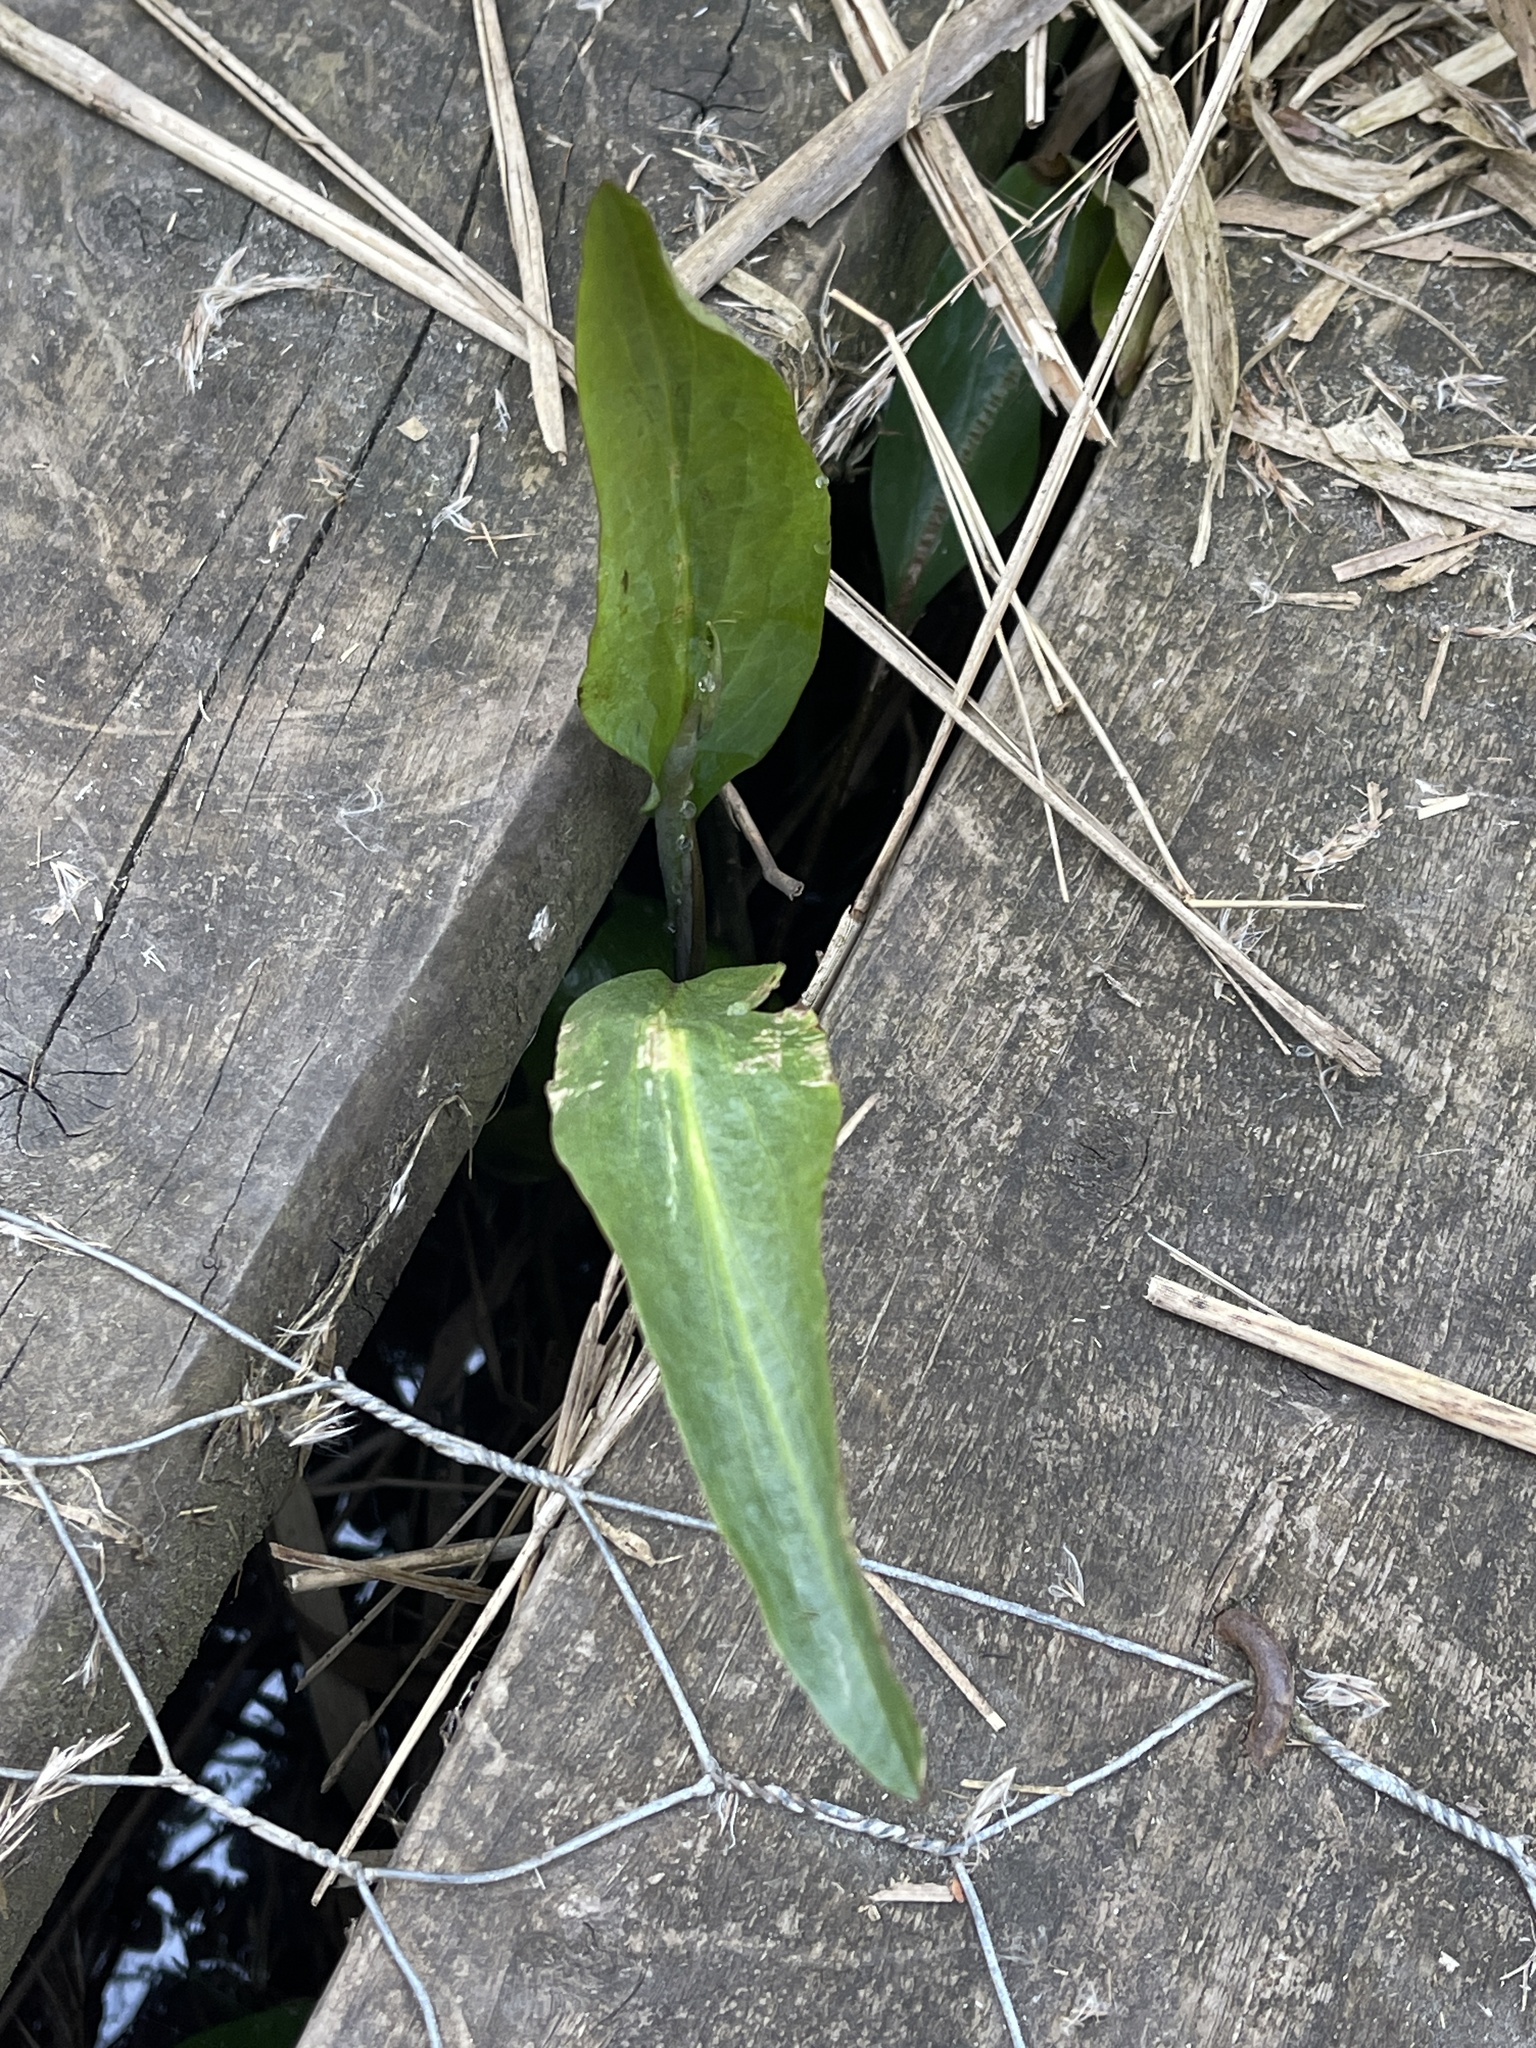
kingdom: Plantae
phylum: Tracheophyta
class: Magnoliopsida
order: Ranunculales
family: Ranunculaceae
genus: Ranunculus
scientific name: Ranunculus lingua
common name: Greater spearwort
